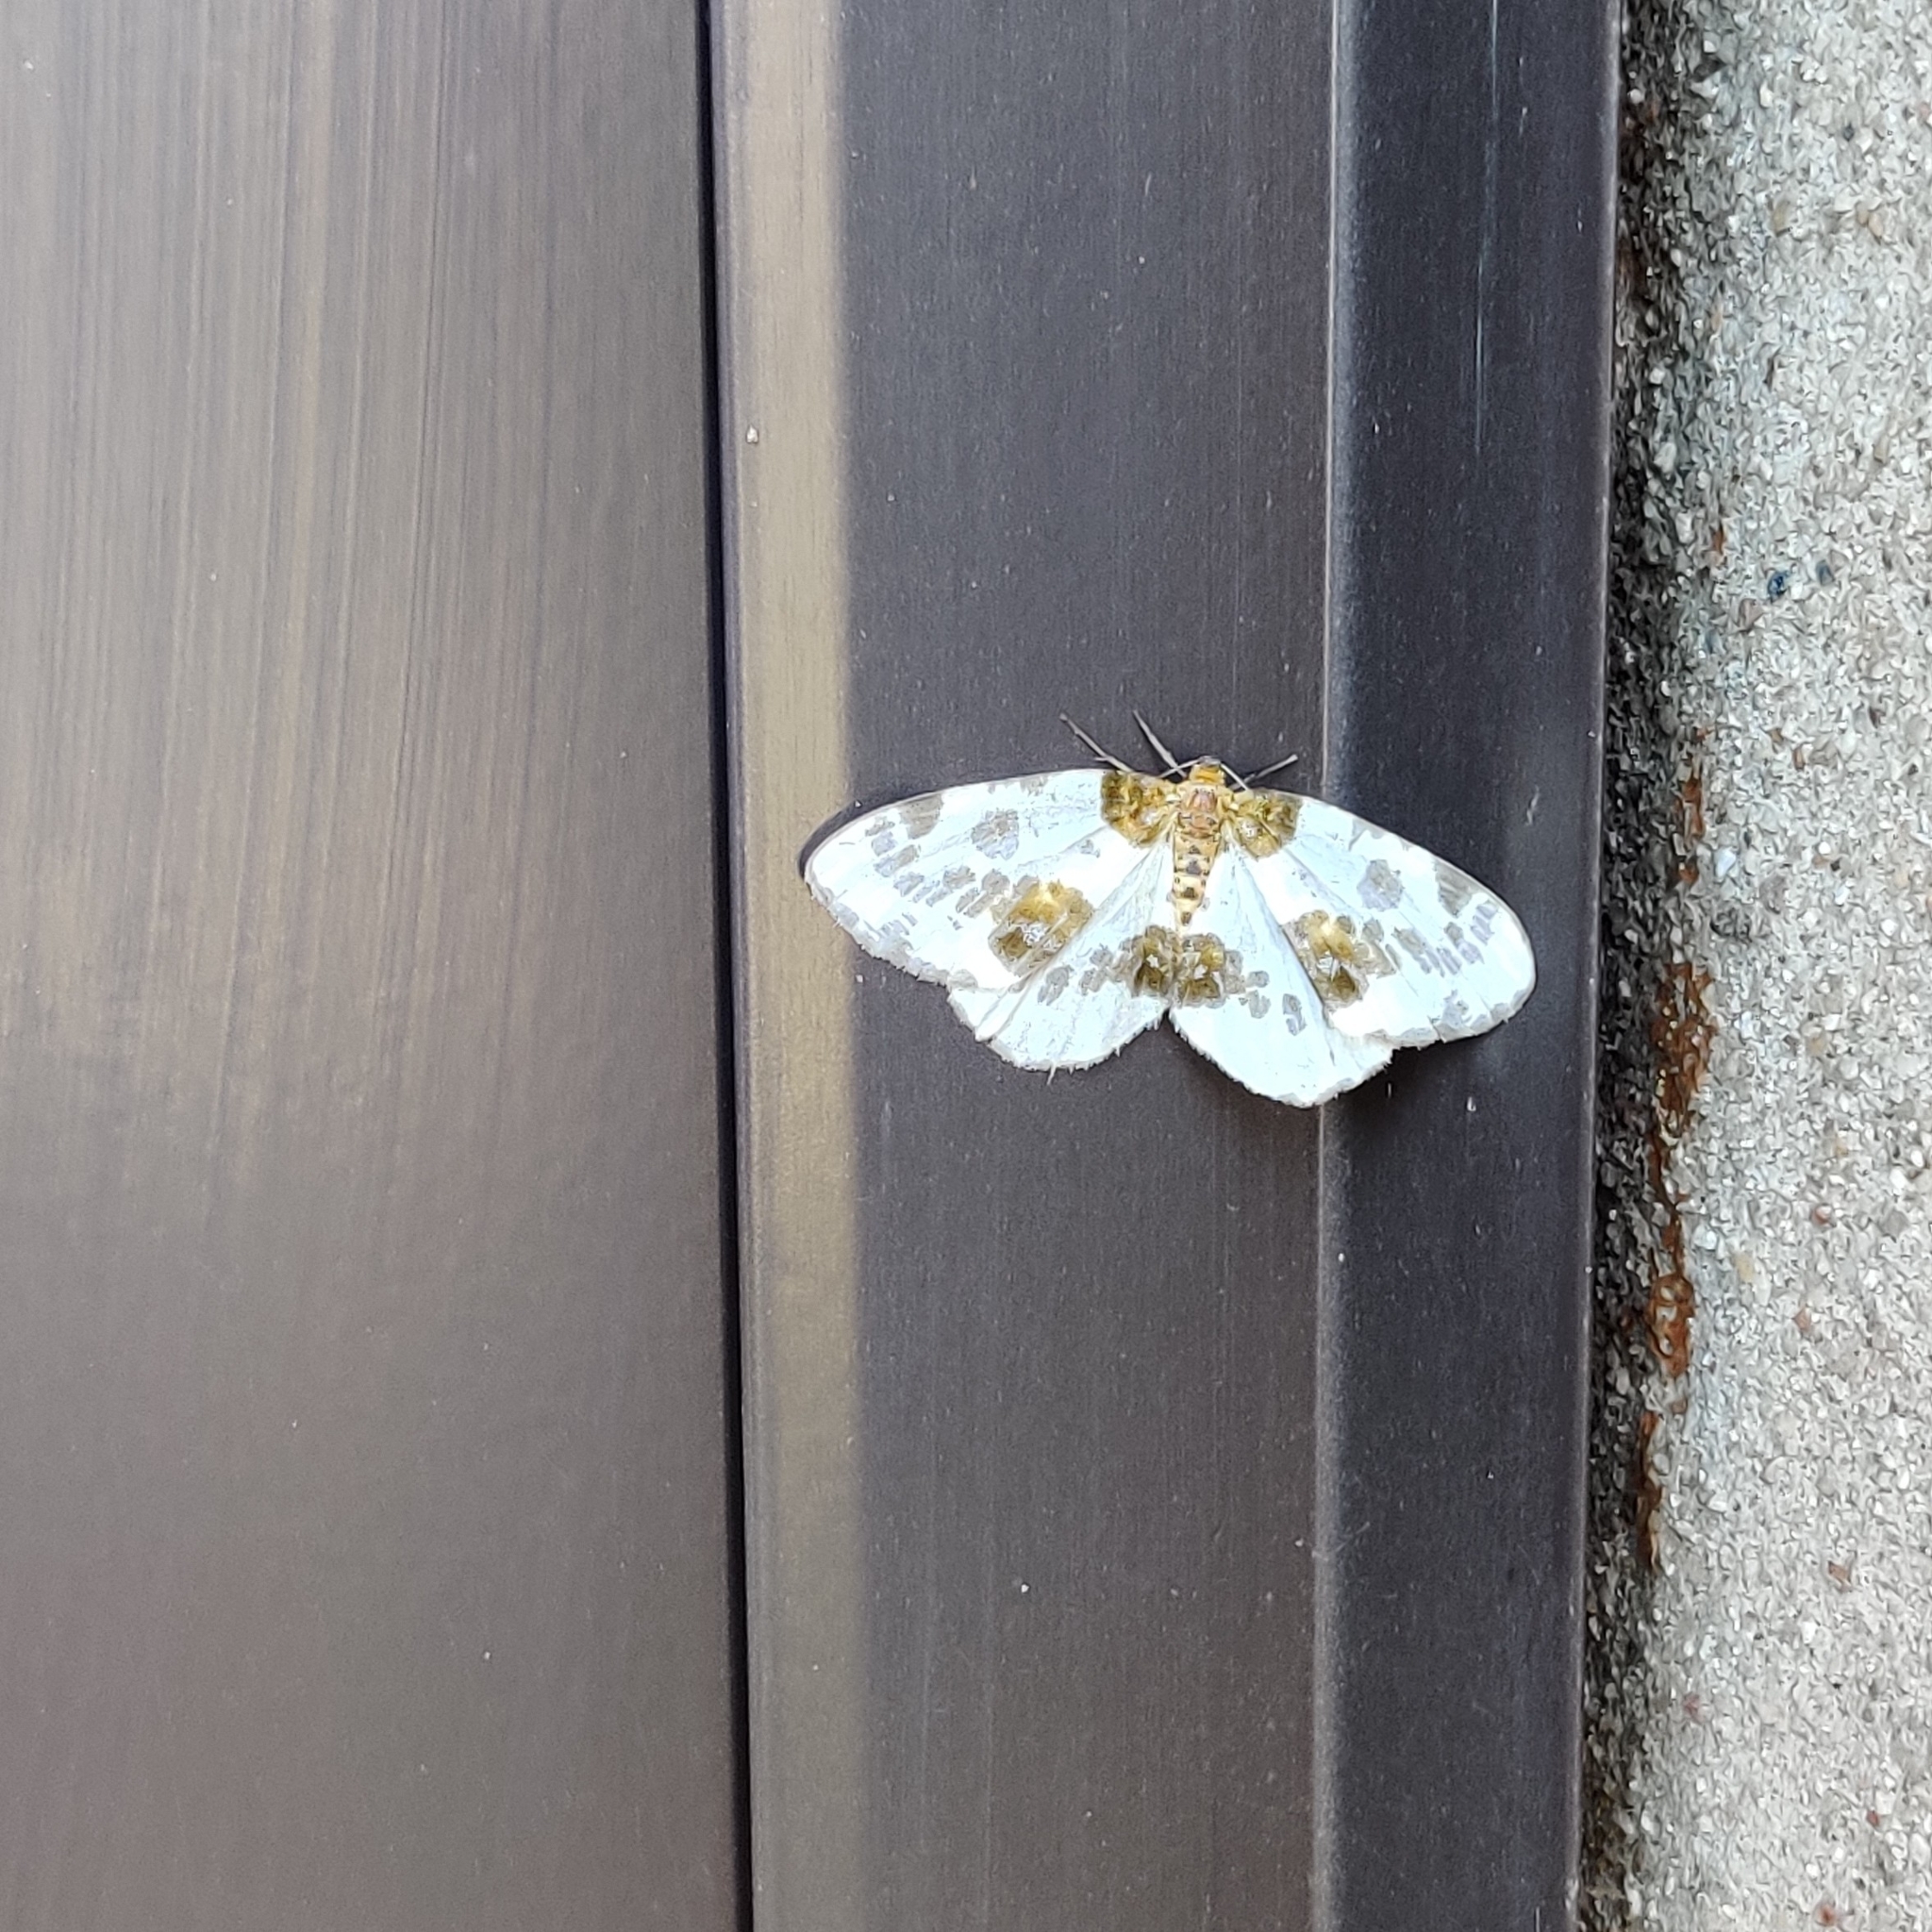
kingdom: Animalia
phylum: Arthropoda
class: Insecta
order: Lepidoptera
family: Geometridae
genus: Abraxas
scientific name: Abraxas sylvata
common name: Clouded magpie
